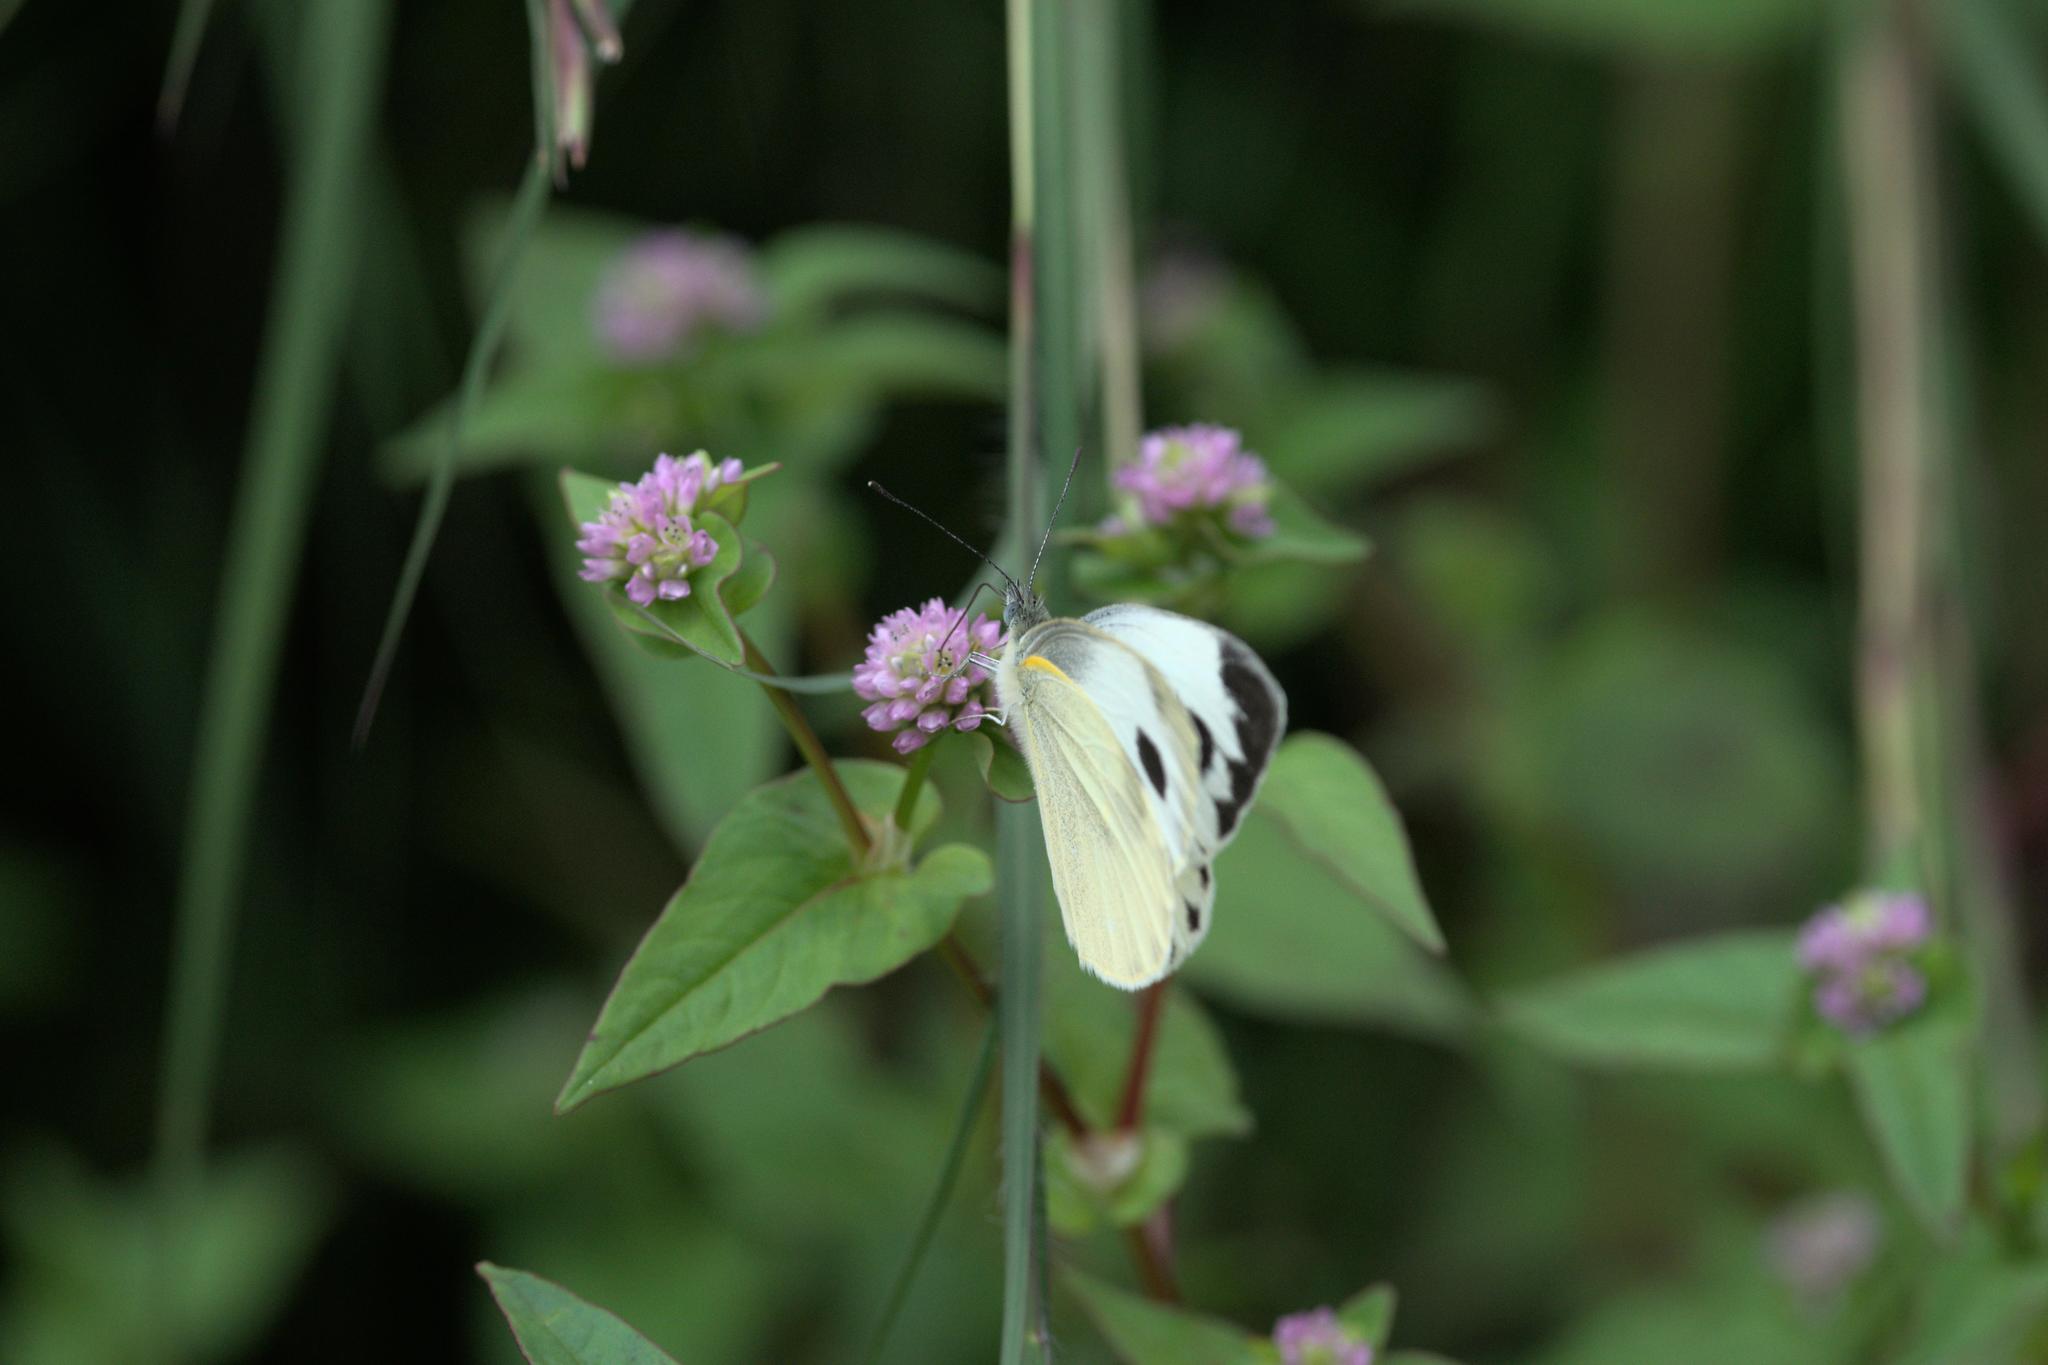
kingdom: Animalia
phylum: Arthropoda
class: Insecta
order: Lepidoptera
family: Pieridae
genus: Pieris
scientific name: Pieris canidia
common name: Indian cabbage white
